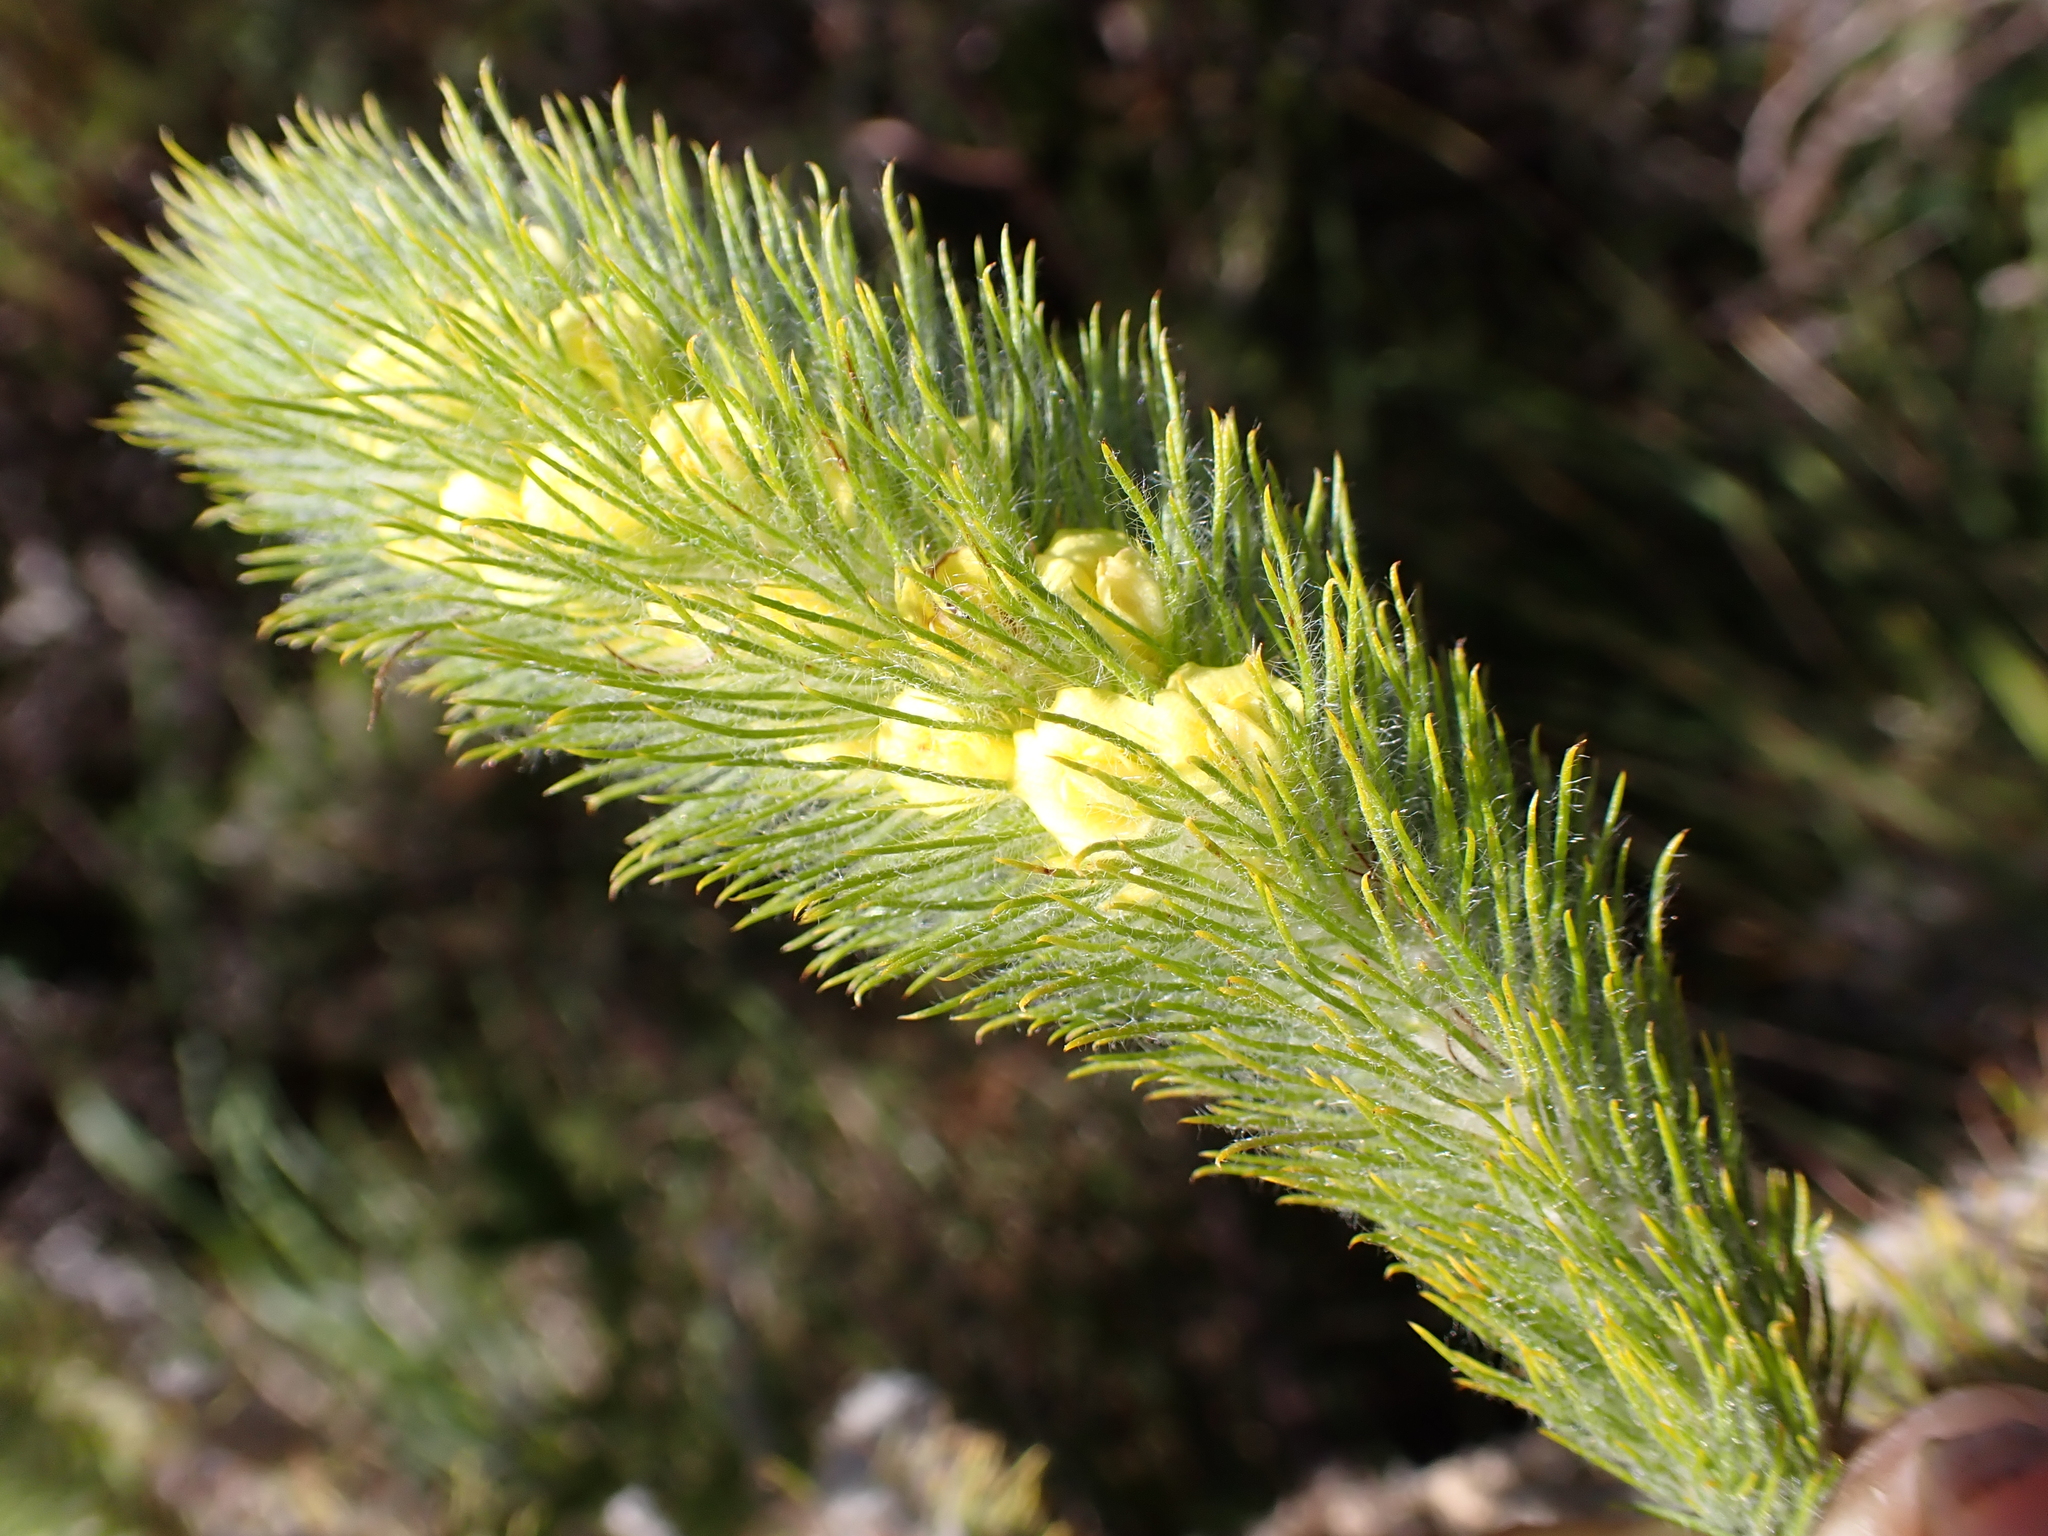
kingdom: Plantae
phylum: Tracheophyta
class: Magnoliopsida
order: Fabales
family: Fabaceae
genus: Aspalathus
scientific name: Aspalathus alopecurus
